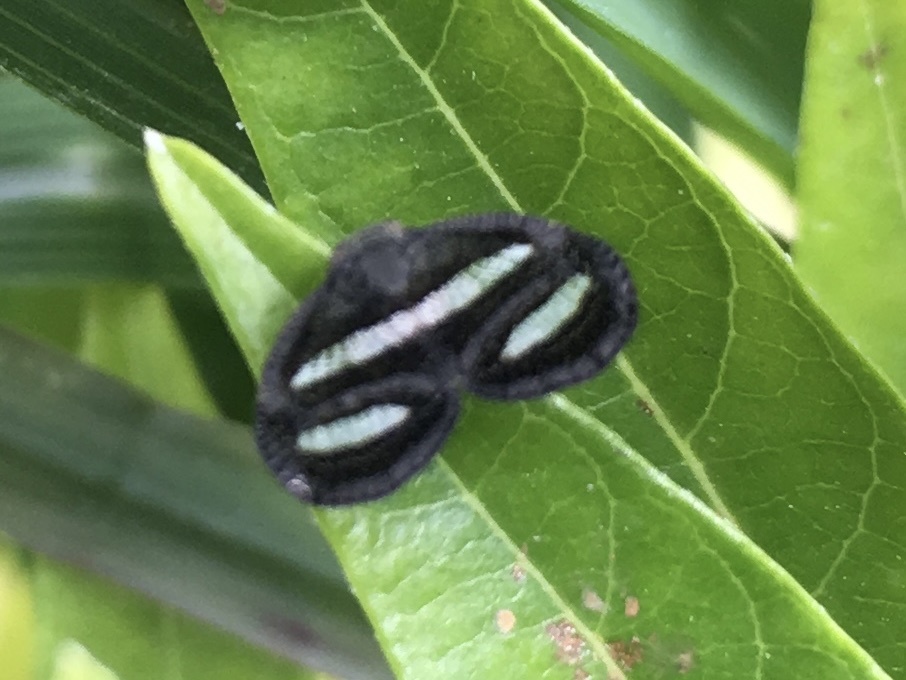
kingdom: Animalia
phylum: Arthropoda
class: Insecta
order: Hemiptera
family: Ricaniidae
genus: Mulvia
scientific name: Mulvia albizona
